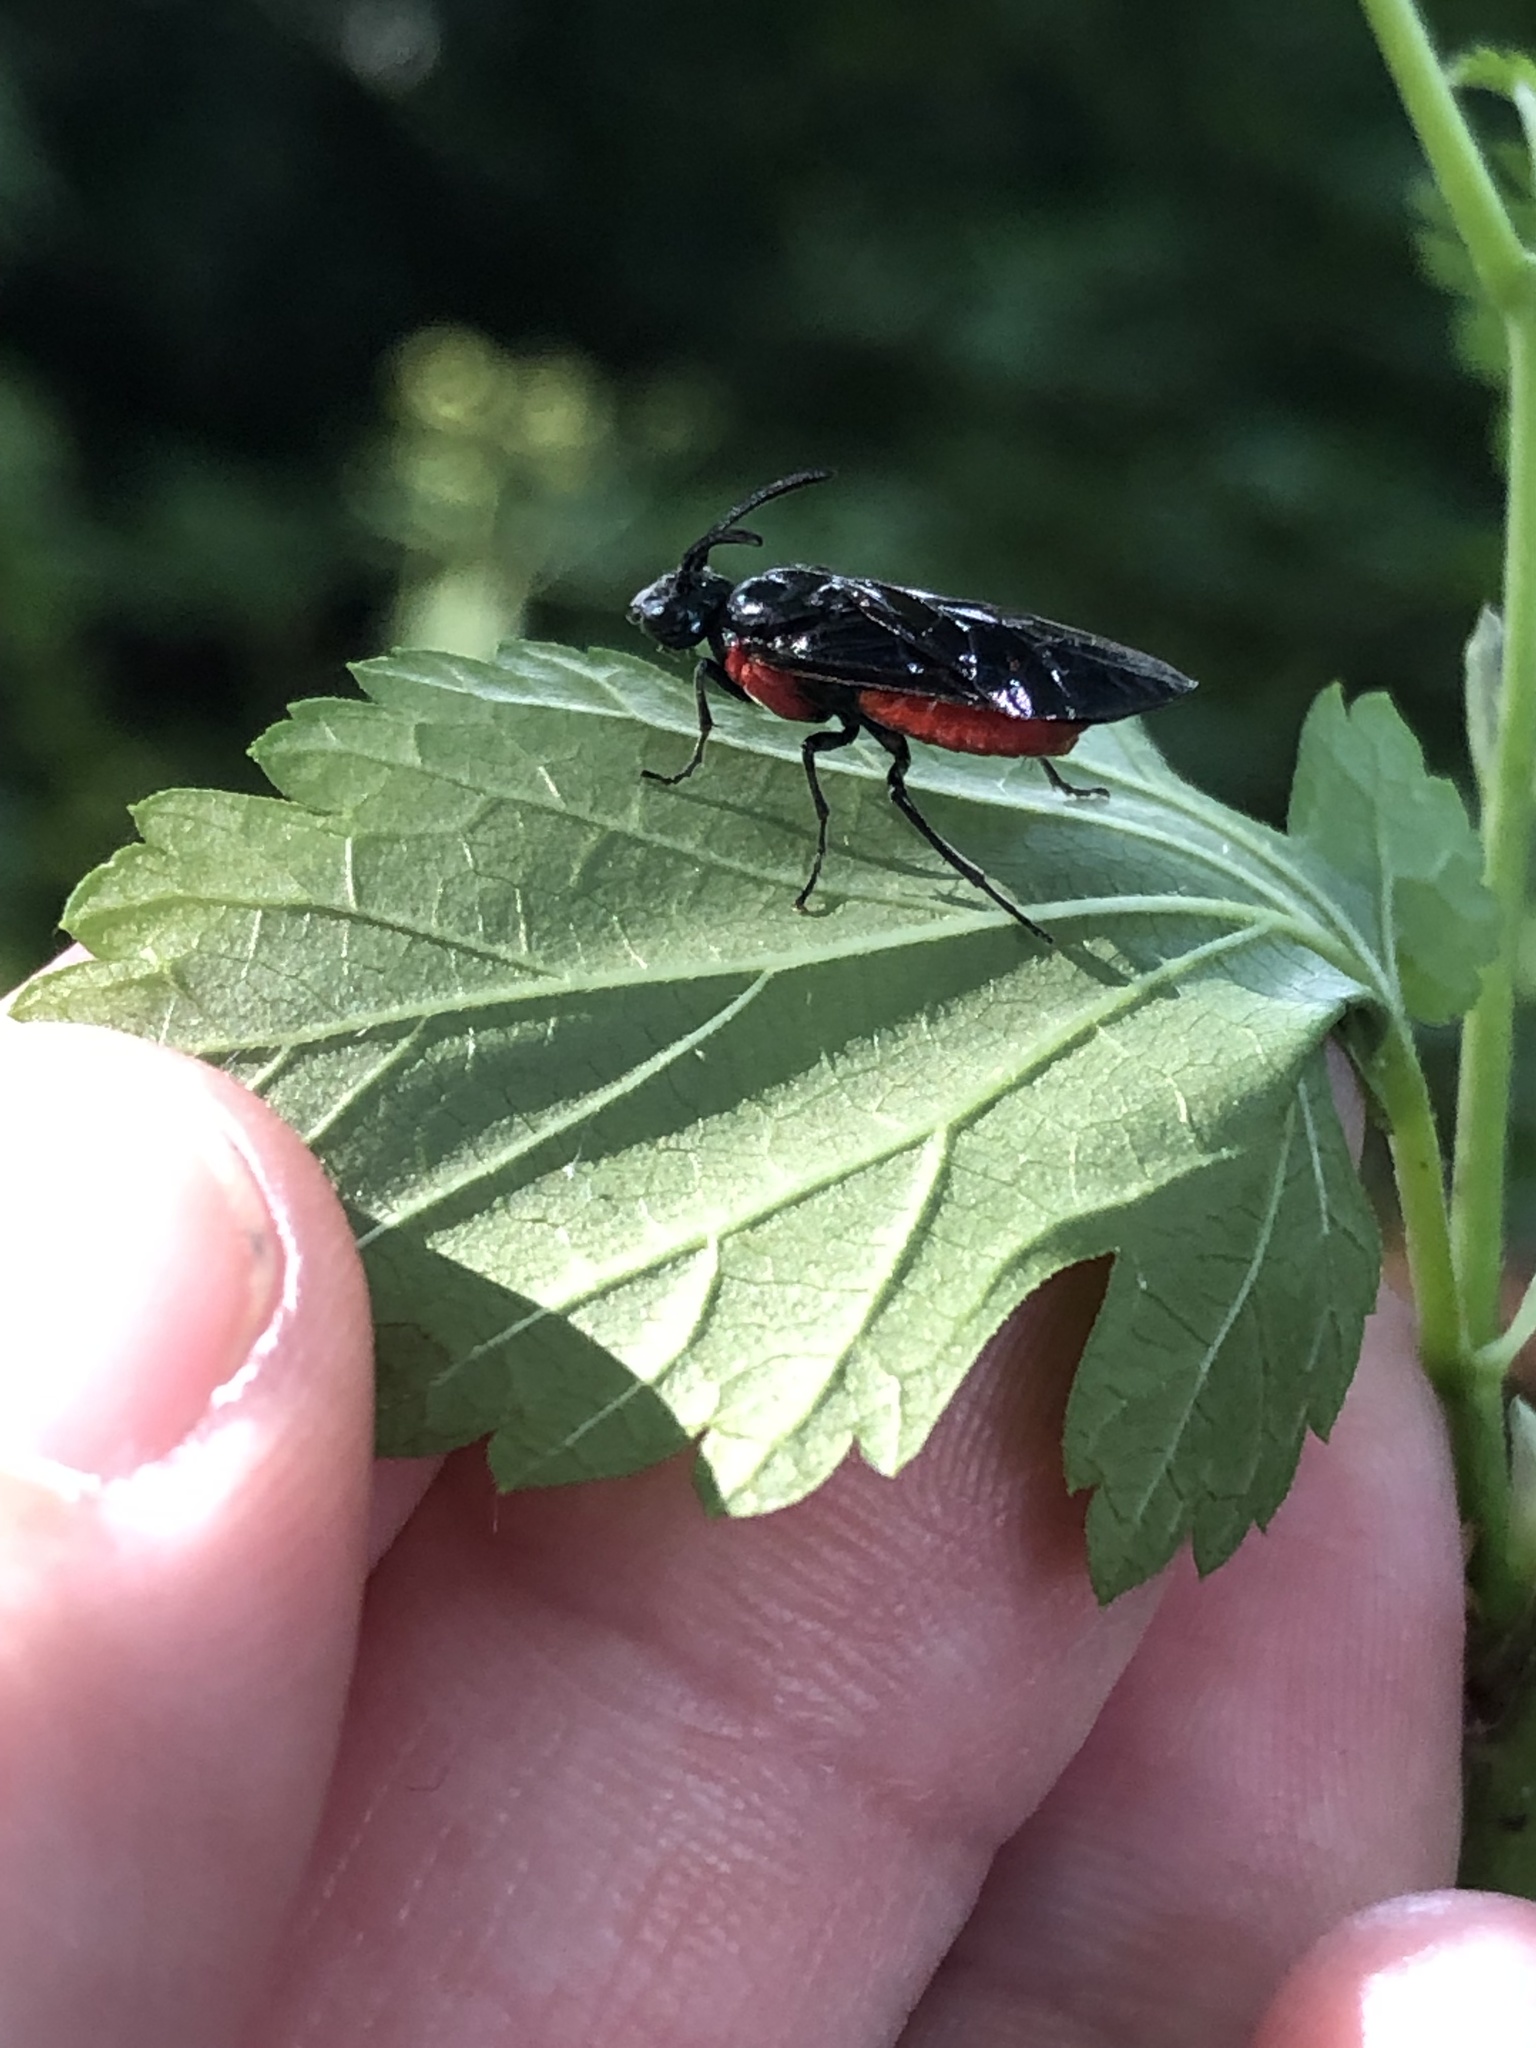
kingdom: Animalia
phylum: Arthropoda
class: Insecta
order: Hymenoptera
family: Argidae
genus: Arge
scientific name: Arge humeralis
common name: Poison ivy sawfly
